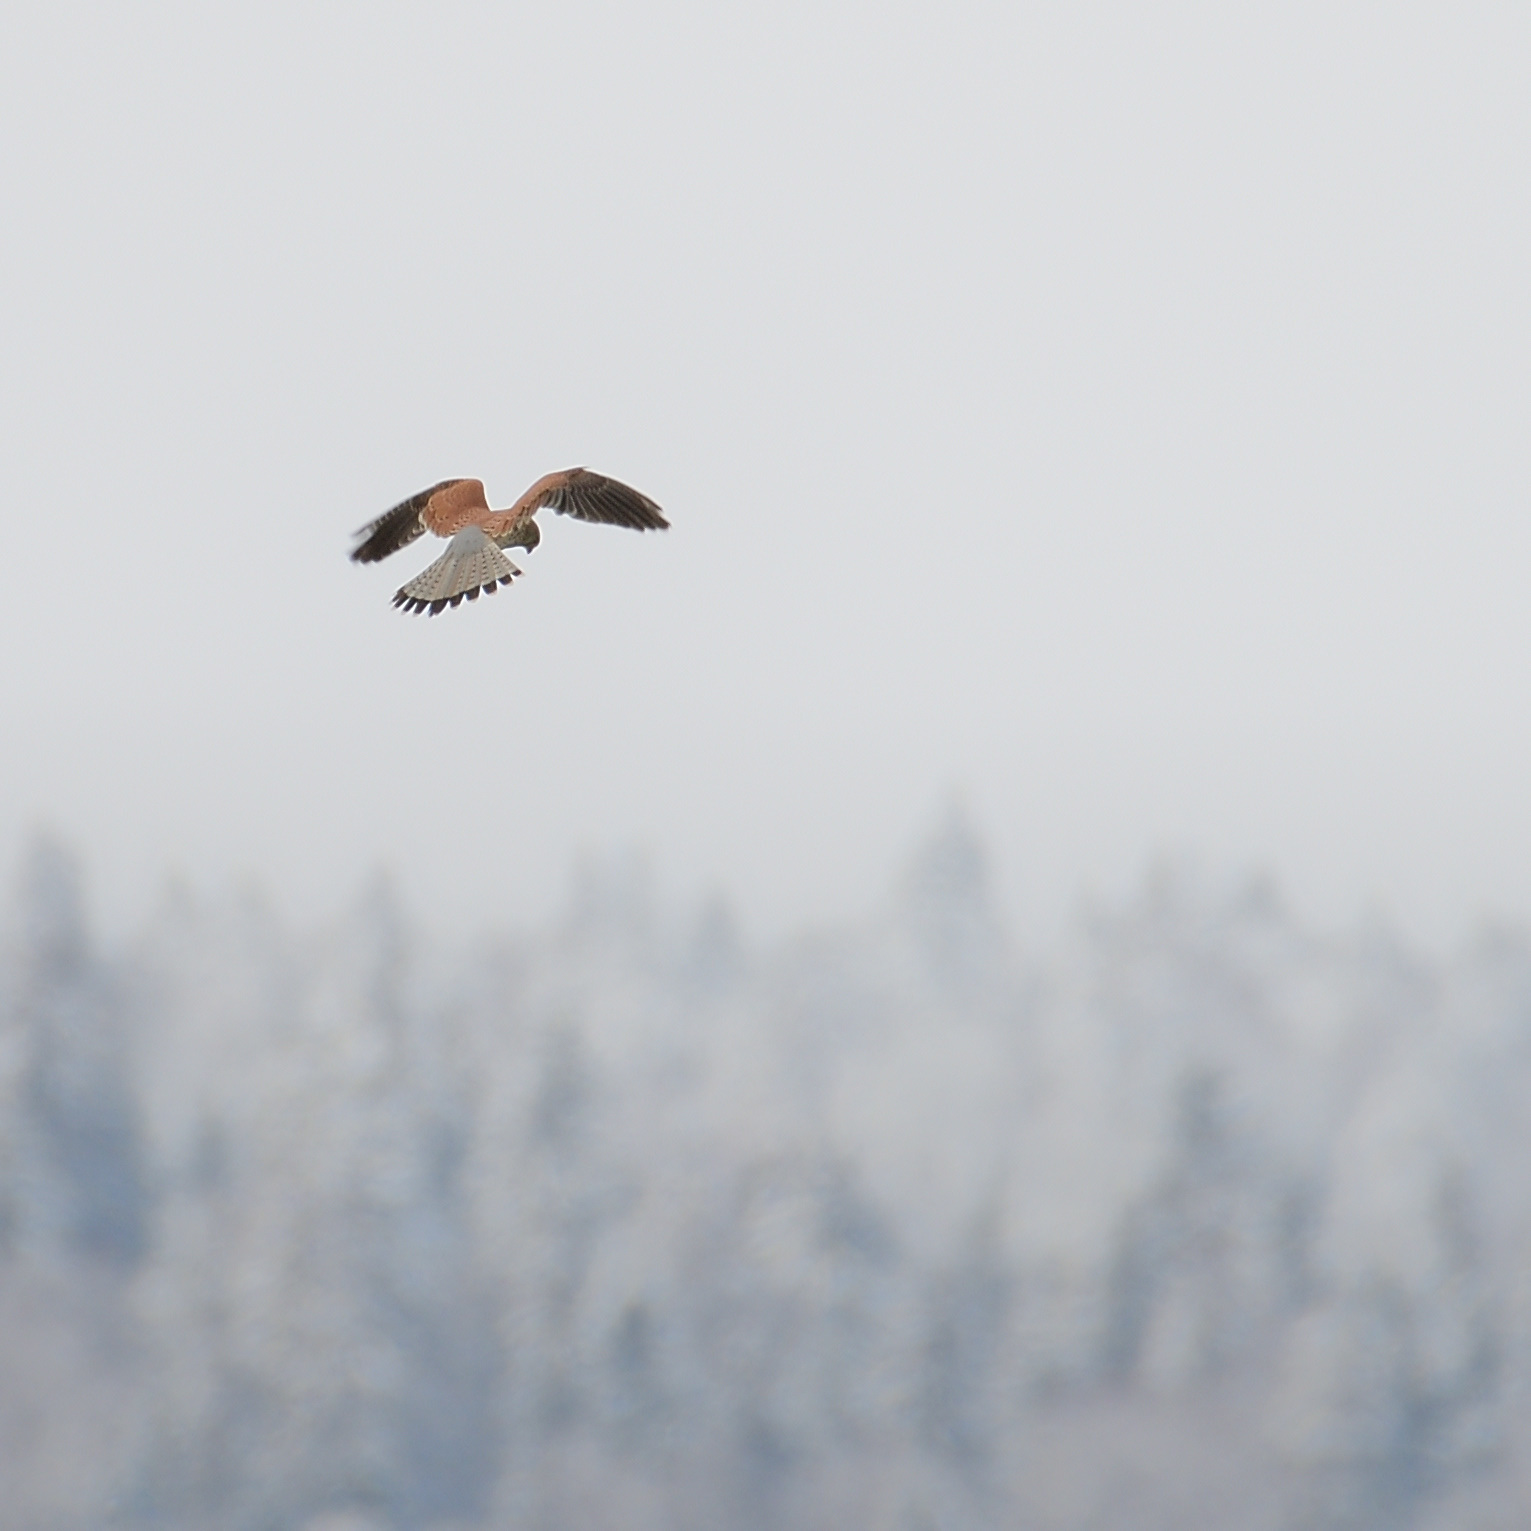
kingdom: Animalia
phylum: Chordata
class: Aves
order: Falconiformes
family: Falconidae
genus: Falco
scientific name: Falco tinnunculus
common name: Common kestrel
